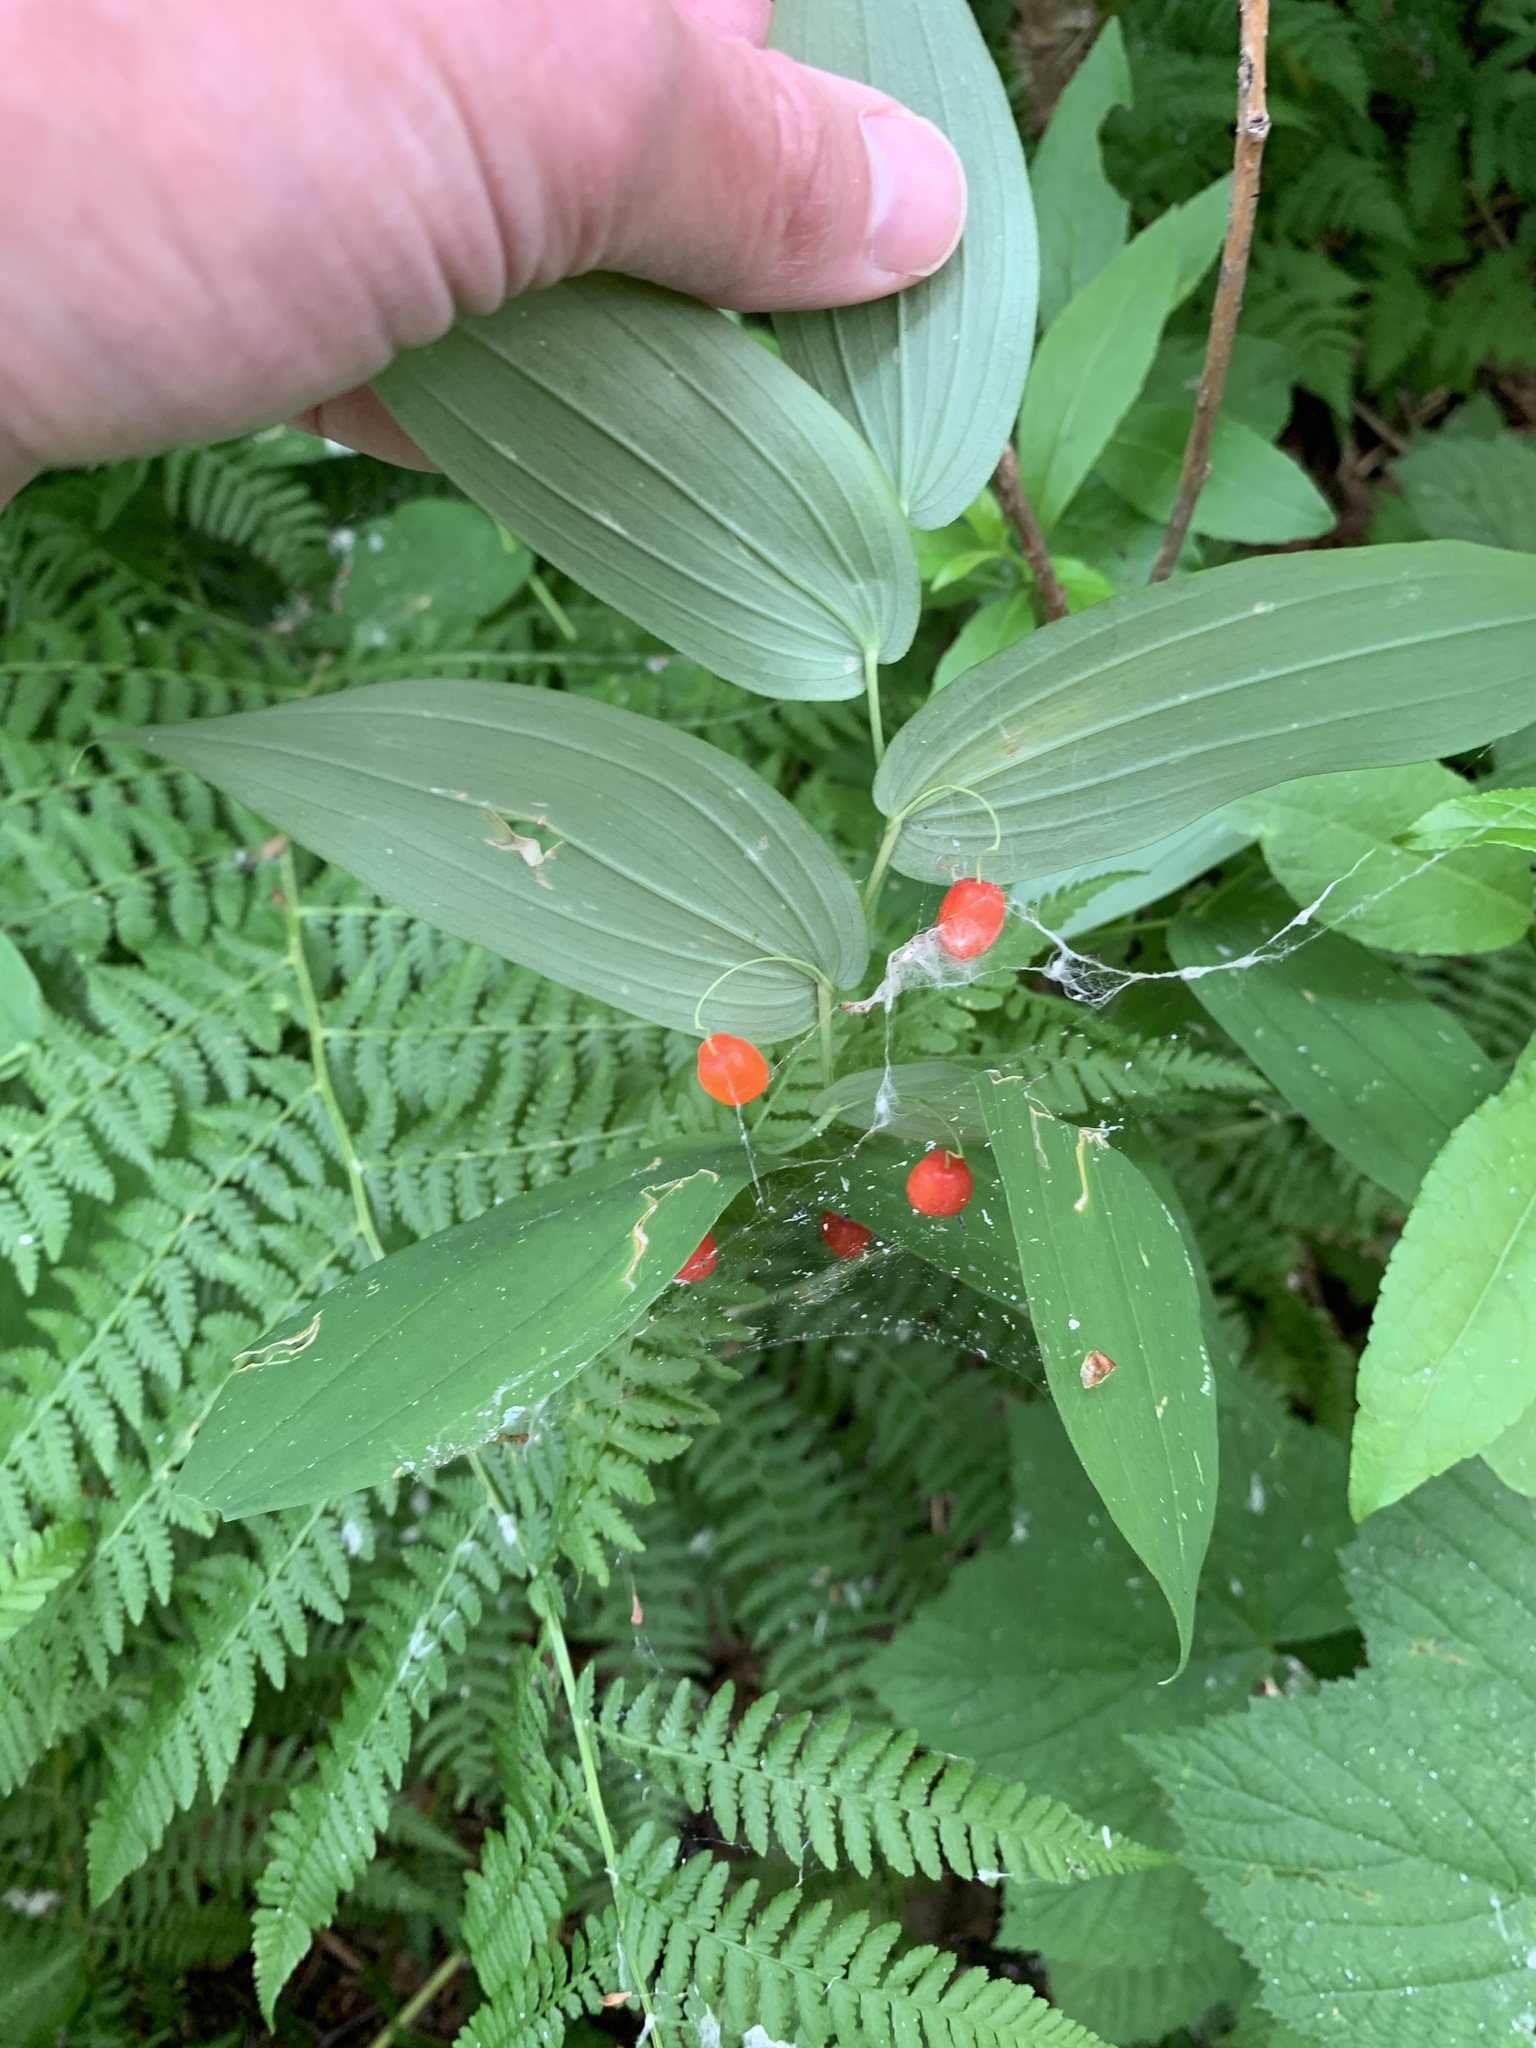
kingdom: Plantae
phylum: Tracheophyta
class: Liliopsida
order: Liliales
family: Liliaceae
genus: Streptopus
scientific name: Streptopus amplexifolius
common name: Clasp twisted stalk
